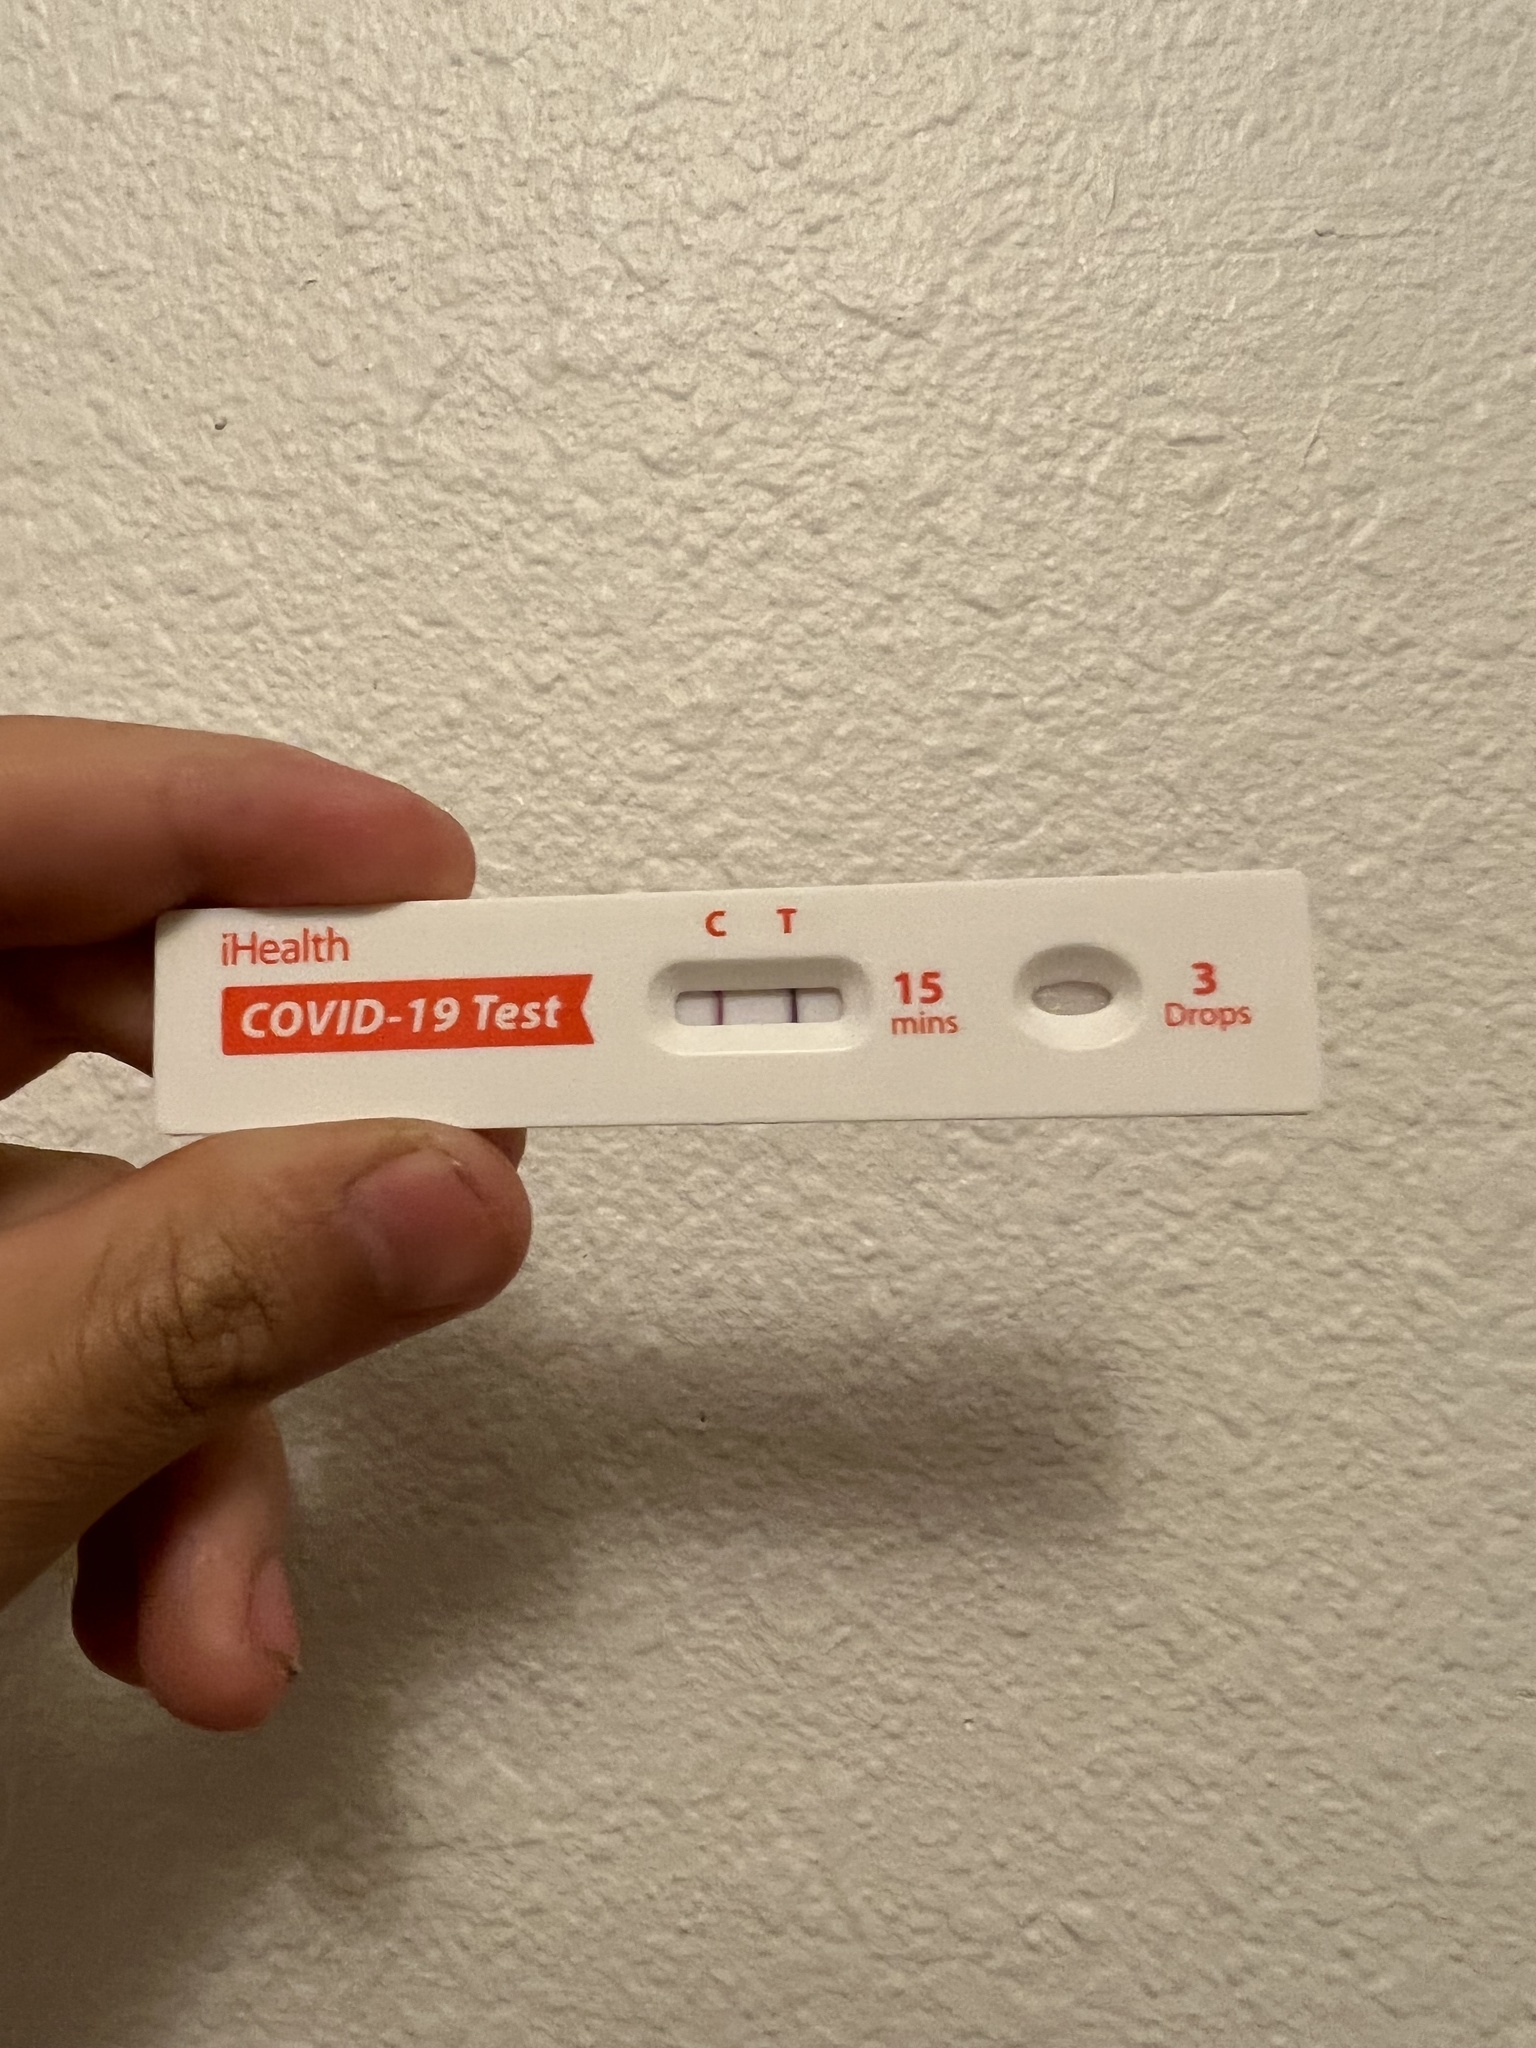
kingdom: Viruses
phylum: Pisuviricota
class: Pisoniviricetes
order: Nidovirales
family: Coronaviridae
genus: Betacoronavirus
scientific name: Betacoronavirus
